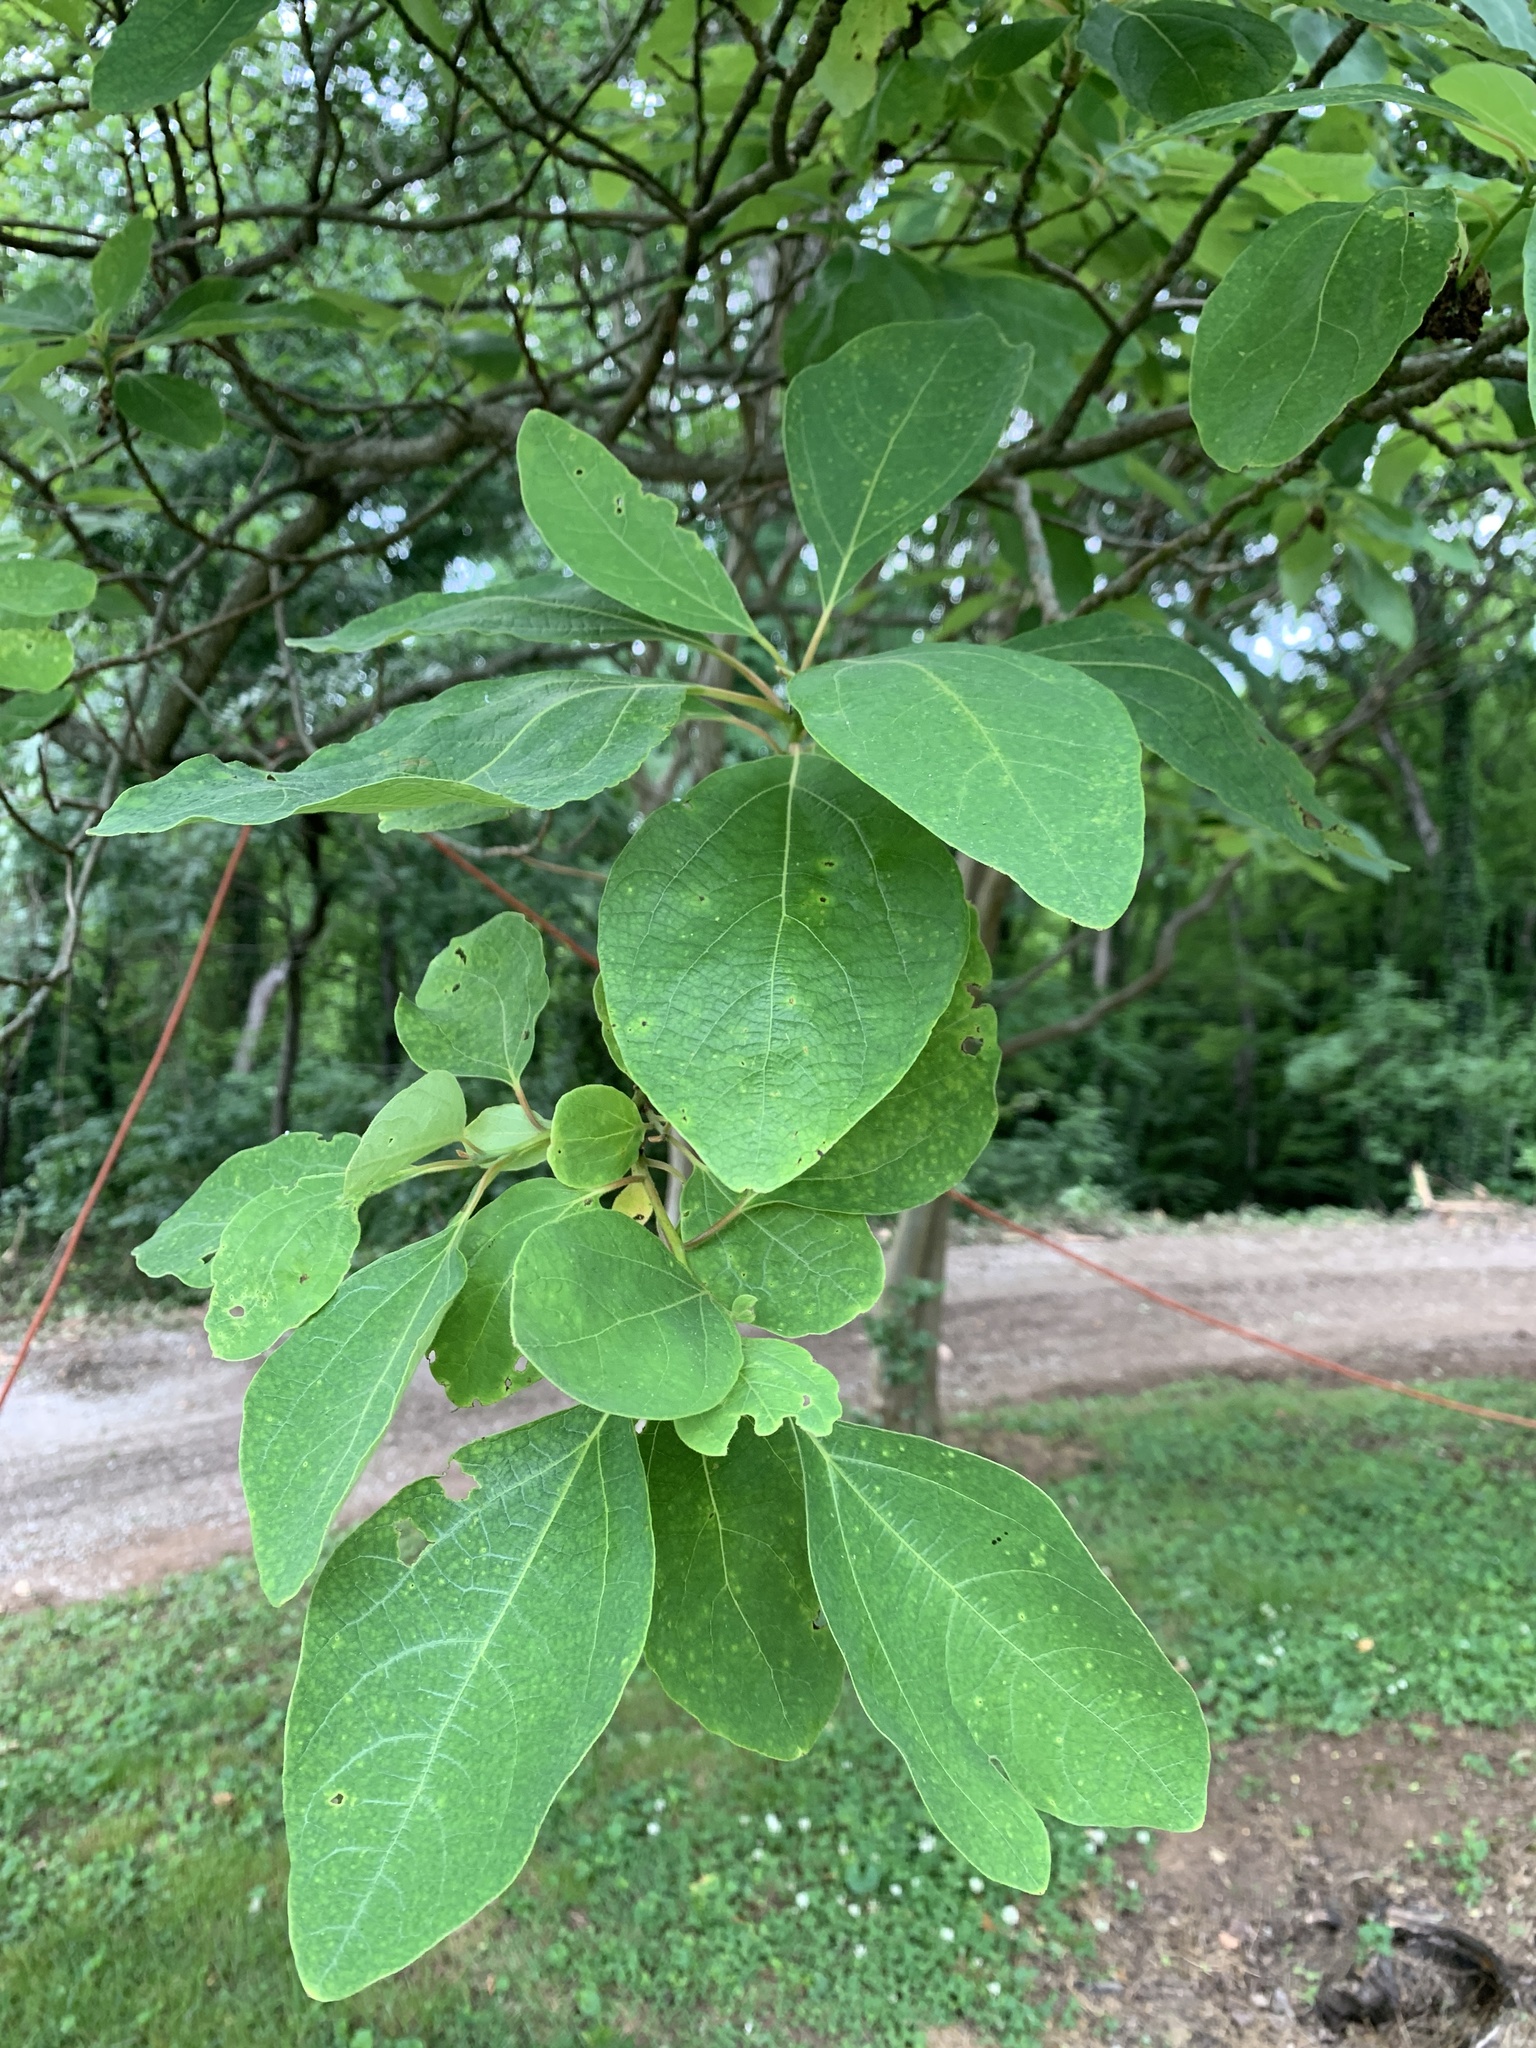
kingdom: Plantae
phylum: Tracheophyta
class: Magnoliopsida
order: Laurales
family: Lauraceae
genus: Sassafras
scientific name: Sassafras albidum
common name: Sassafras
